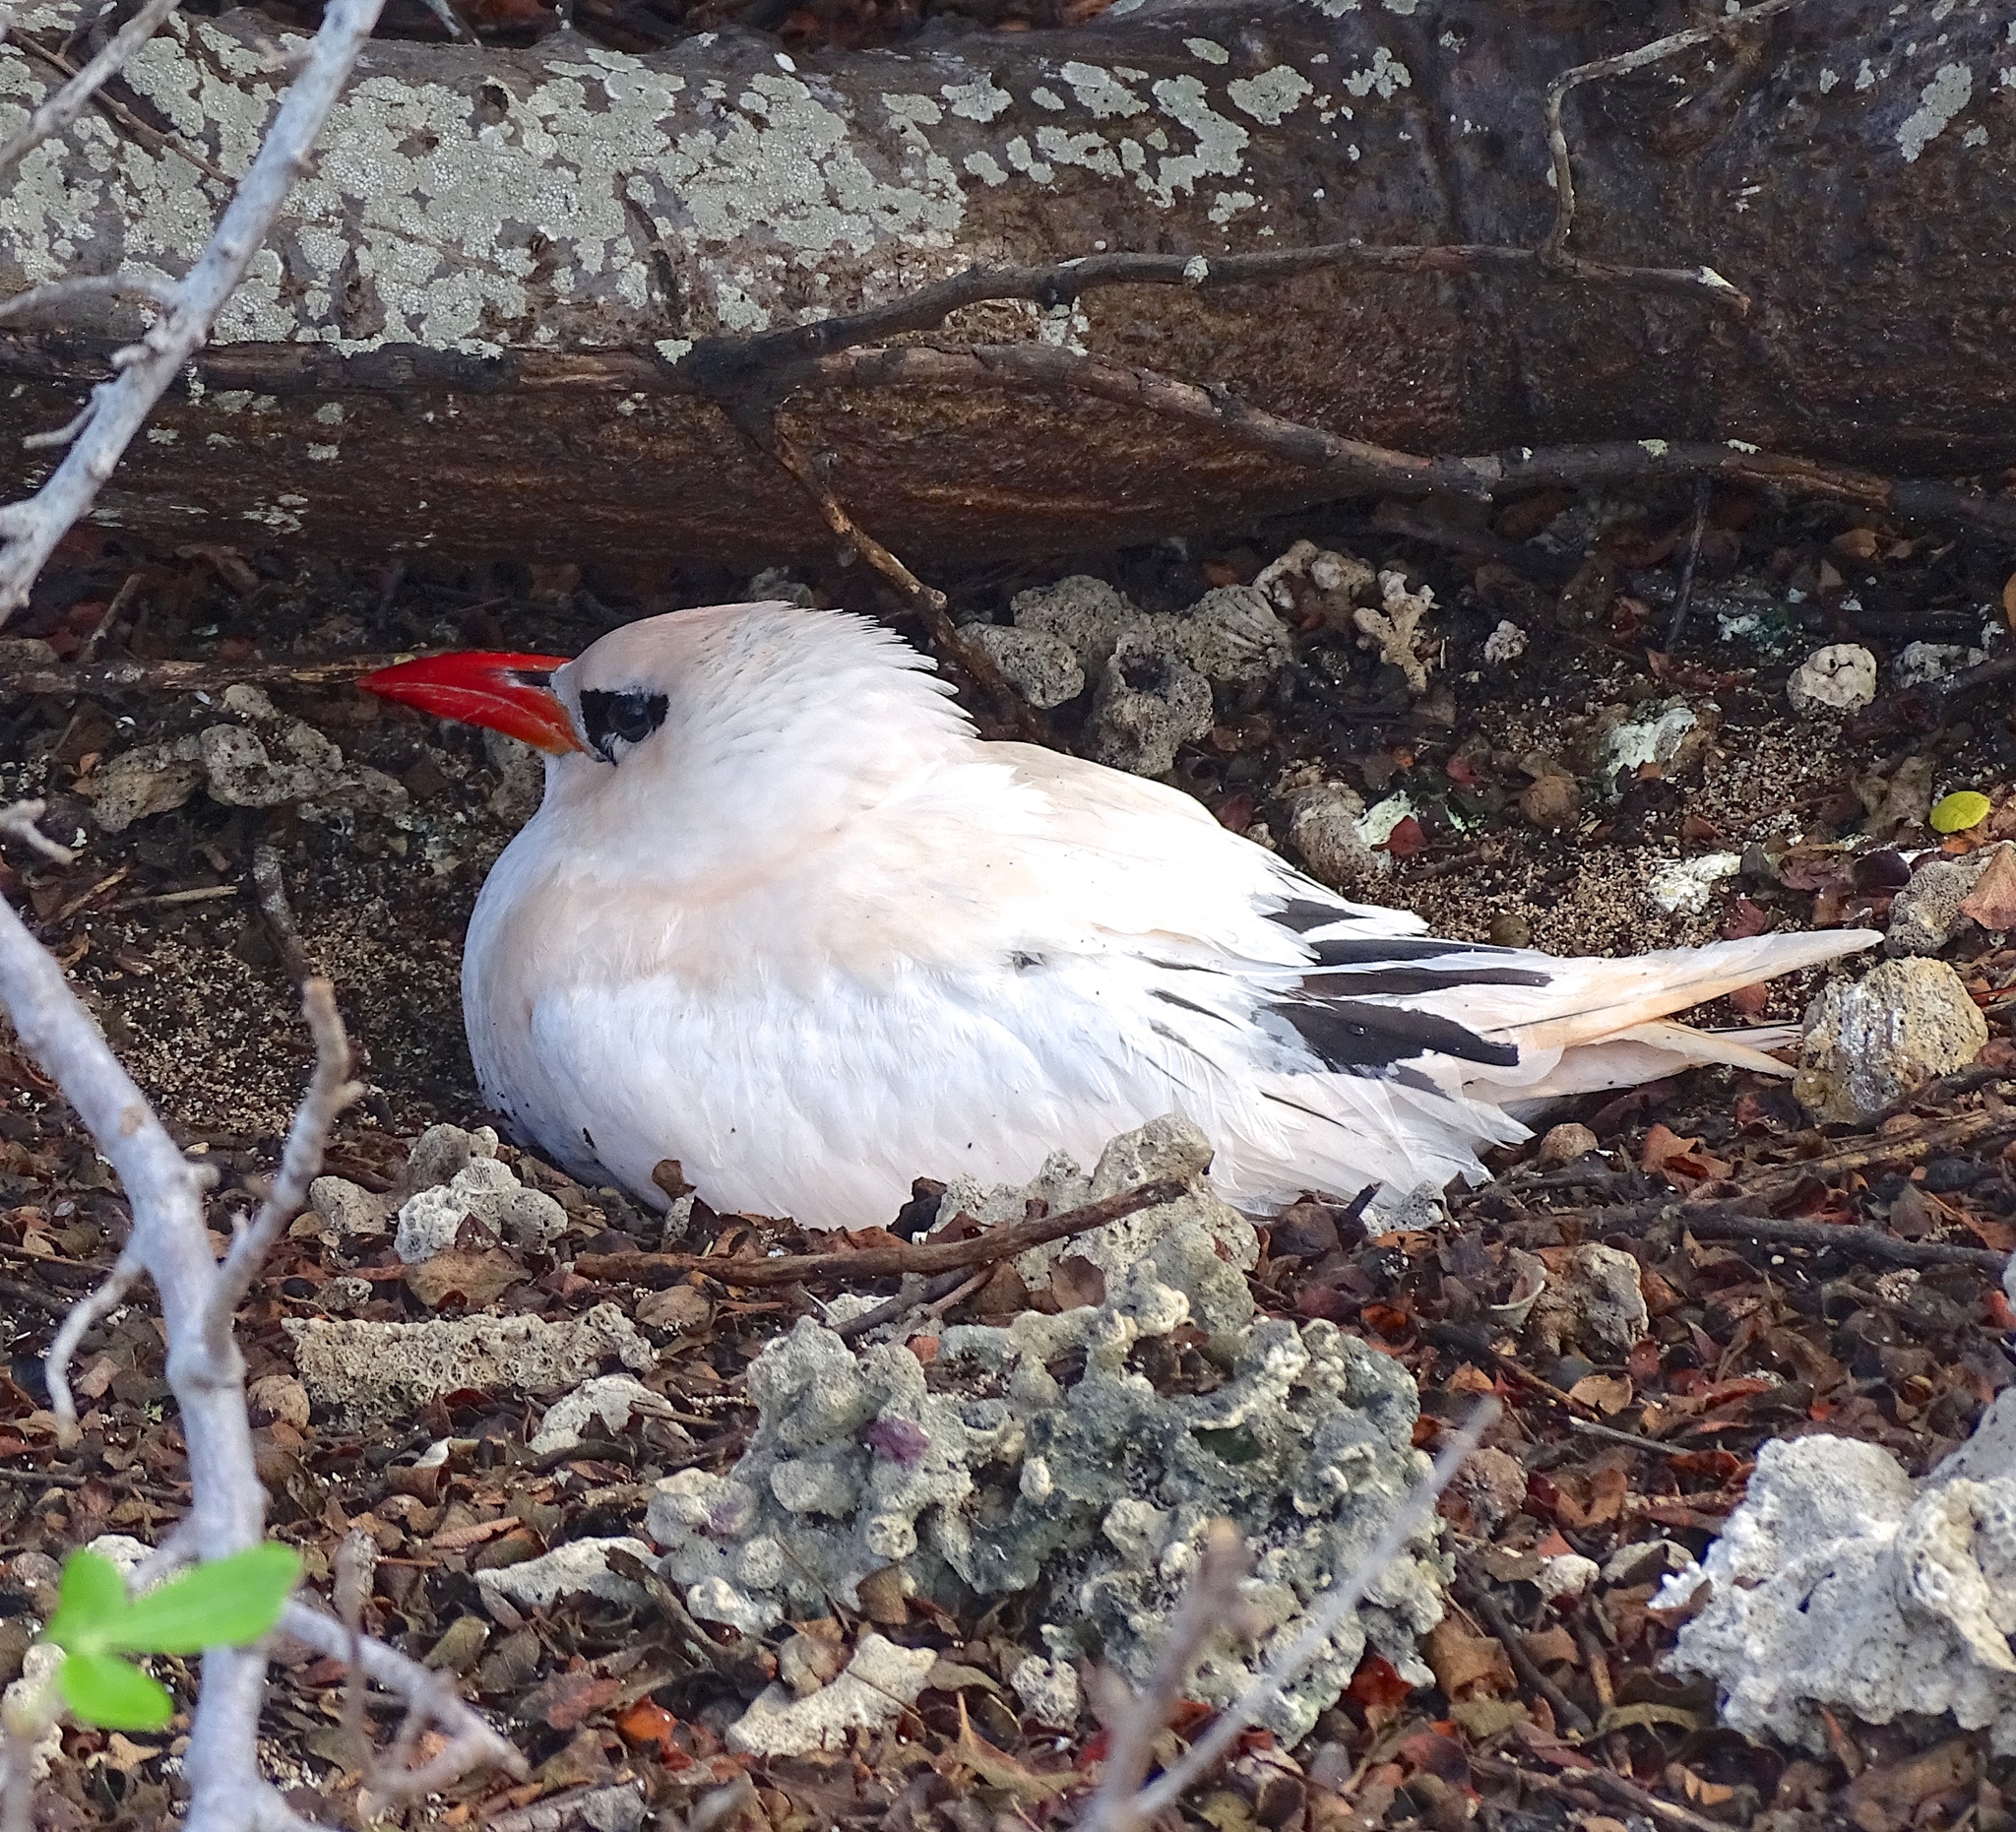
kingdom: Animalia
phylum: Chordata
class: Aves
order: Phaethontiformes
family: Phaethontidae
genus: Phaethon
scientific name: Phaethon rubricauda
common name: Red-tailed tropicbird
